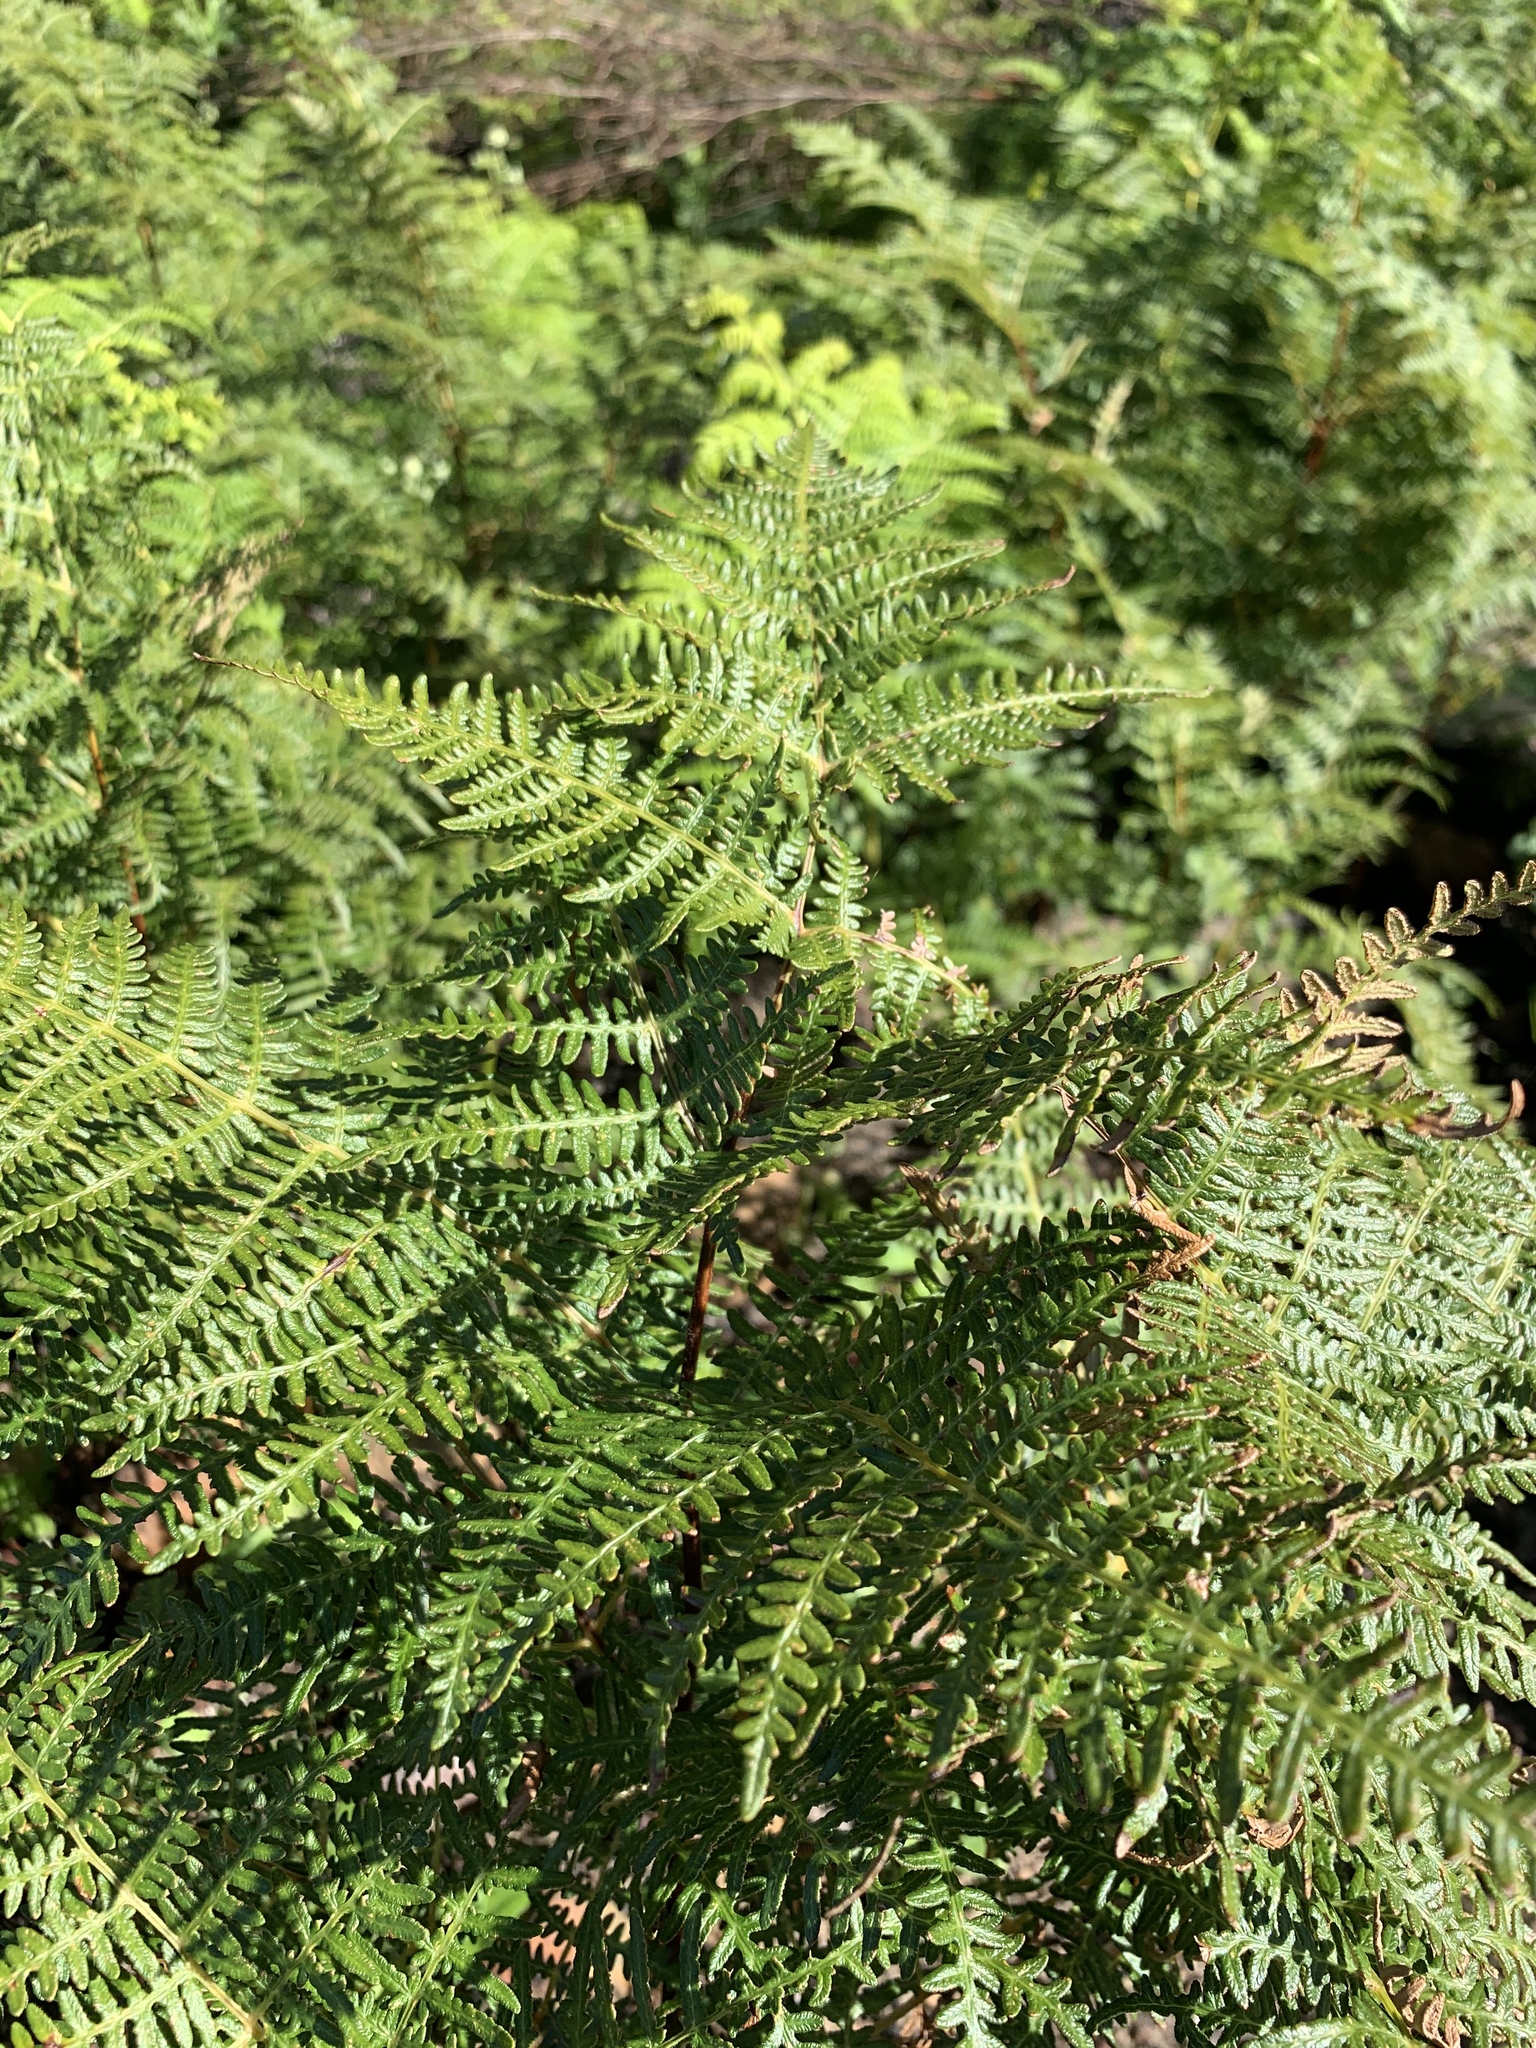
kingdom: Plantae
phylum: Tracheophyta
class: Polypodiopsida
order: Polypodiales
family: Dennstaedtiaceae
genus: Pteridium
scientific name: Pteridium aquilinum
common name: Bracken
